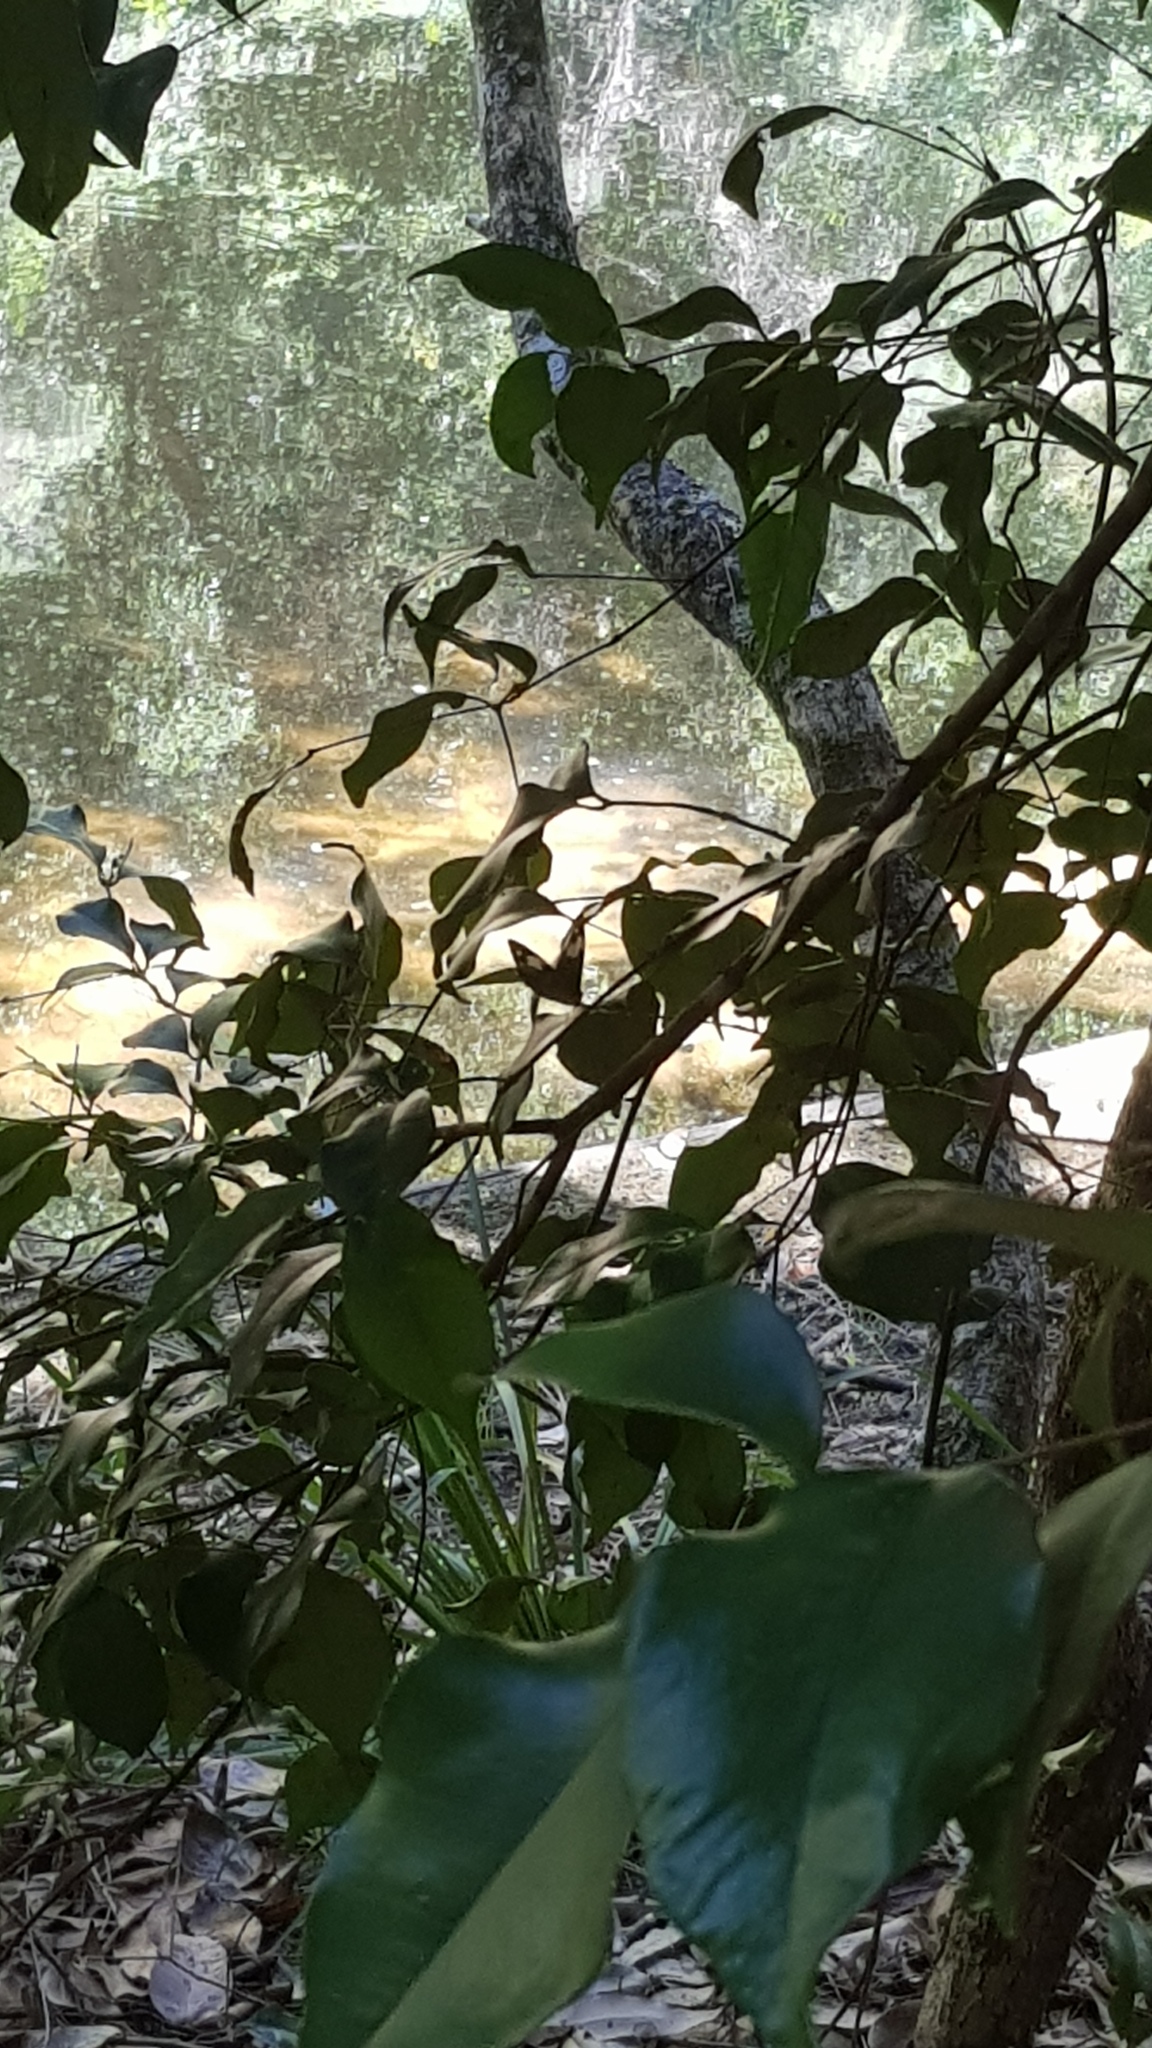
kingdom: Animalia
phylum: Arthropoda
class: Insecta
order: Lepidoptera
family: Nymphalidae
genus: Heteronympha
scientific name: Heteronympha mirifica
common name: Wonder brown
